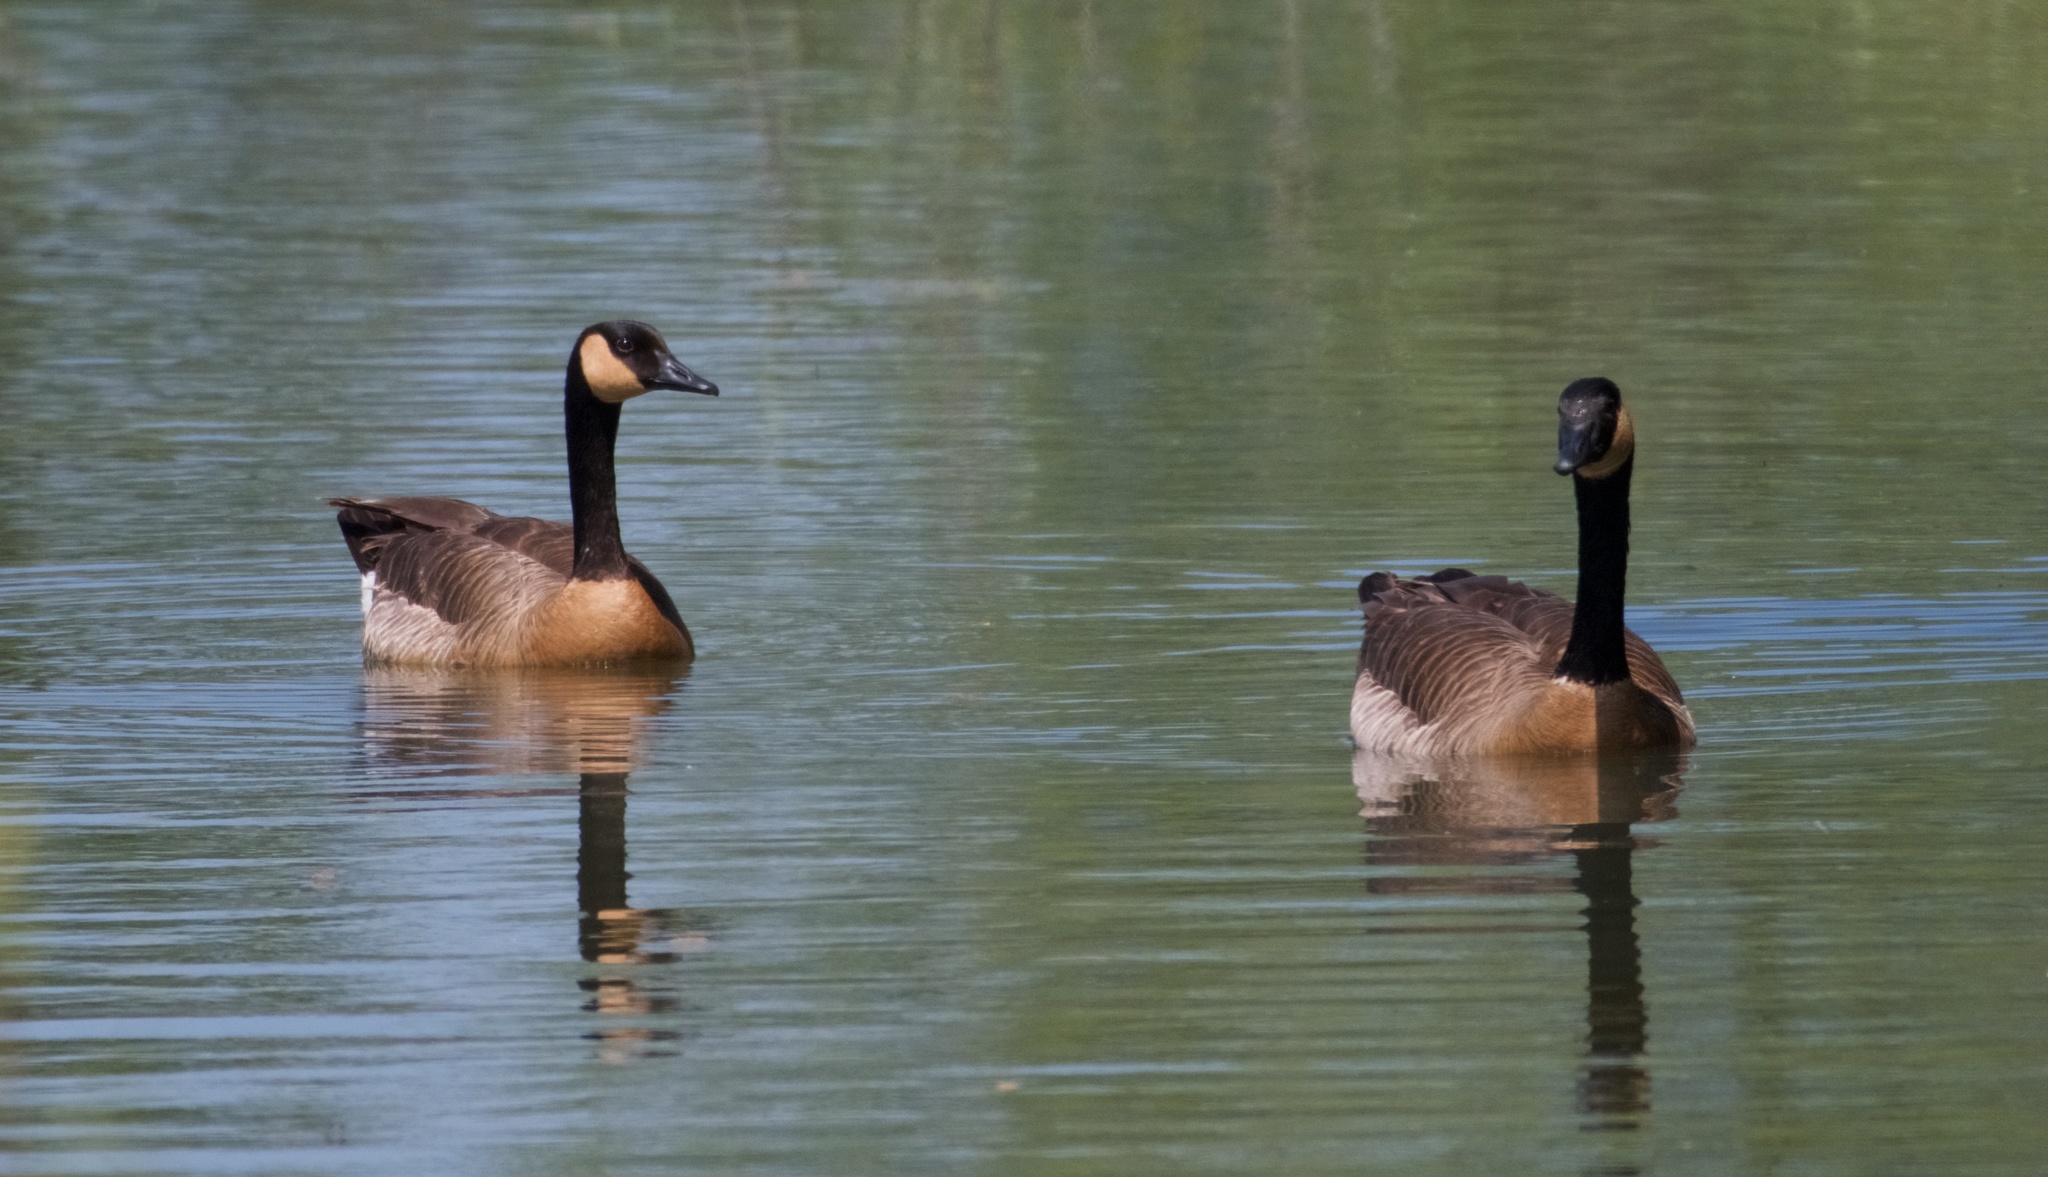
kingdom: Animalia
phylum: Chordata
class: Aves
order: Anseriformes
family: Anatidae
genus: Branta
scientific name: Branta canadensis
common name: Canada goose
